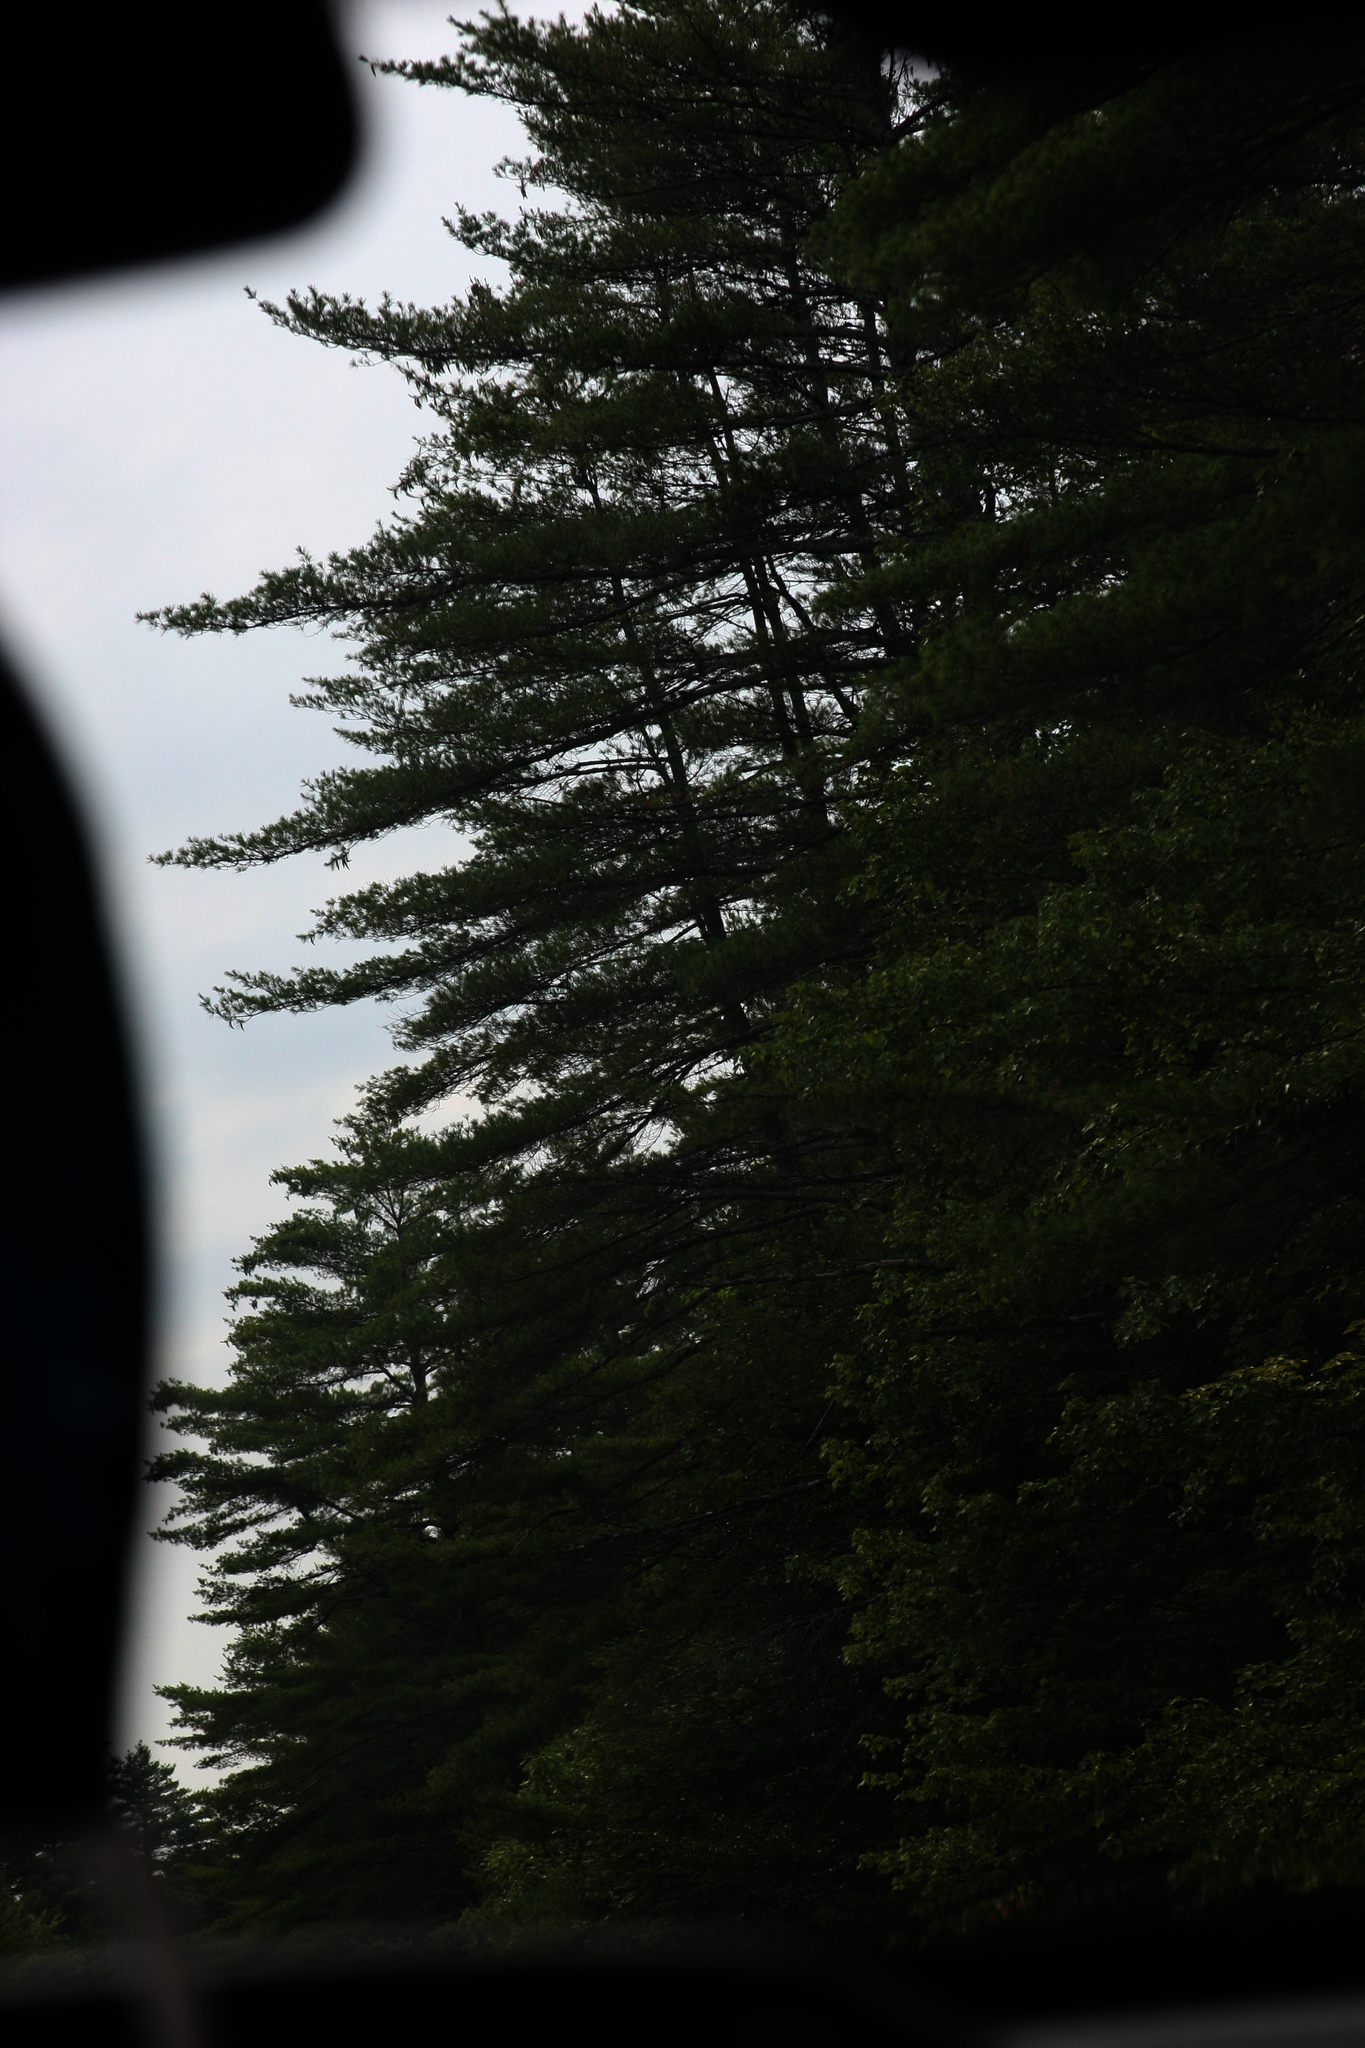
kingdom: Plantae
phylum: Tracheophyta
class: Pinopsida
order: Pinales
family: Pinaceae
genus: Pinus
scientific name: Pinus strobus
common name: Weymouth pine
